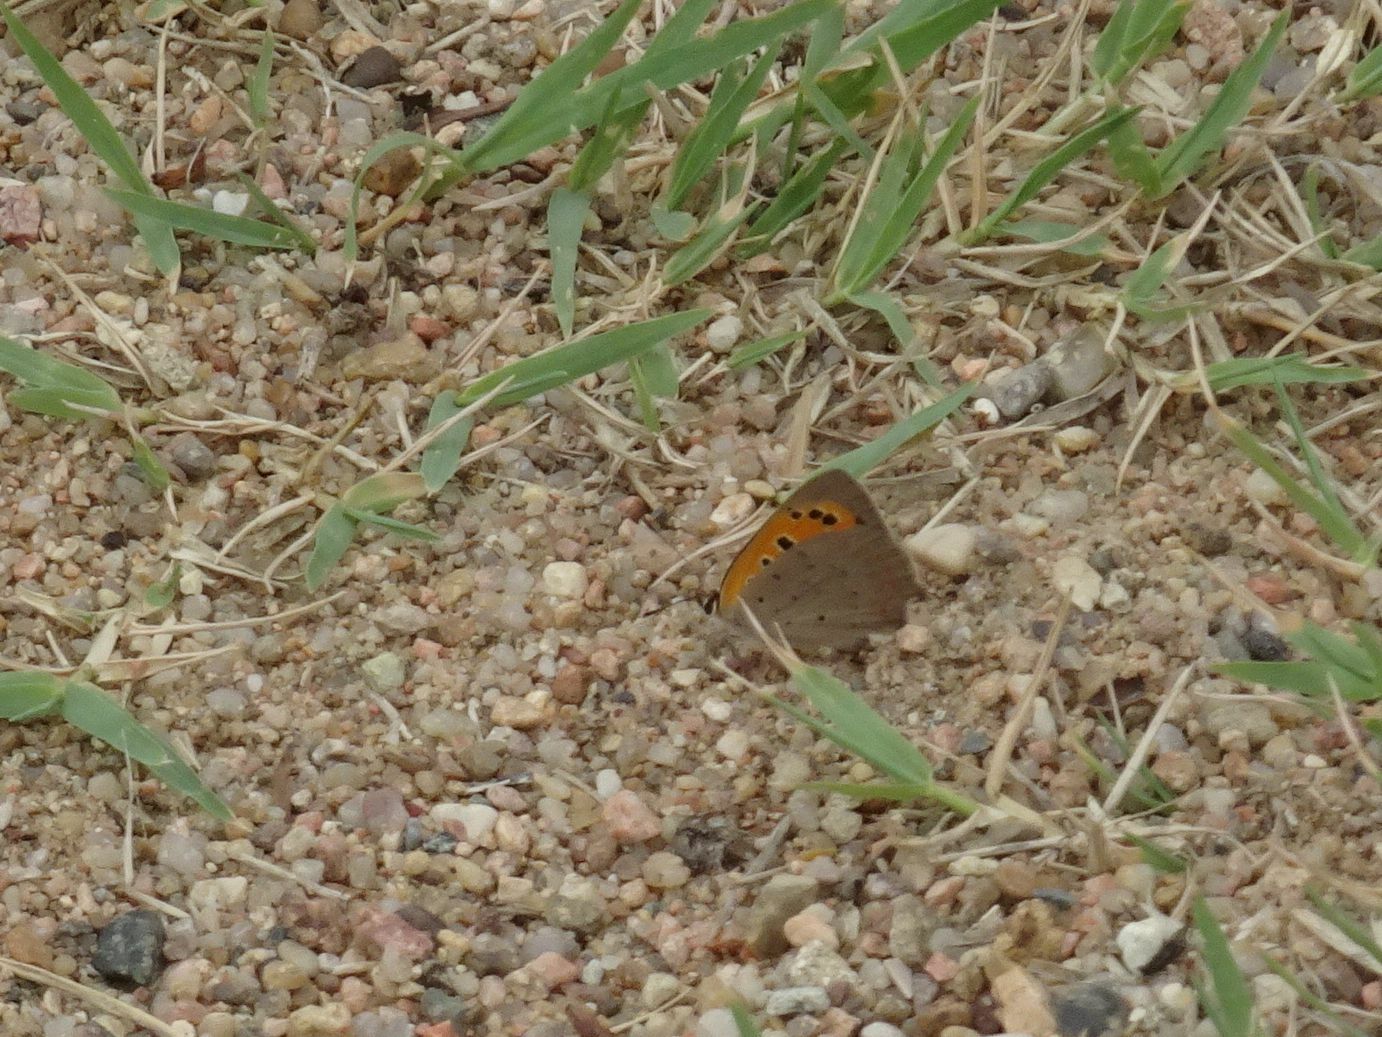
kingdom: Animalia
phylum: Arthropoda
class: Insecta
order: Lepidoptera
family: Lycaenidae
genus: Lycaena
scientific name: Lycaena phlaeas
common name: Small copper
